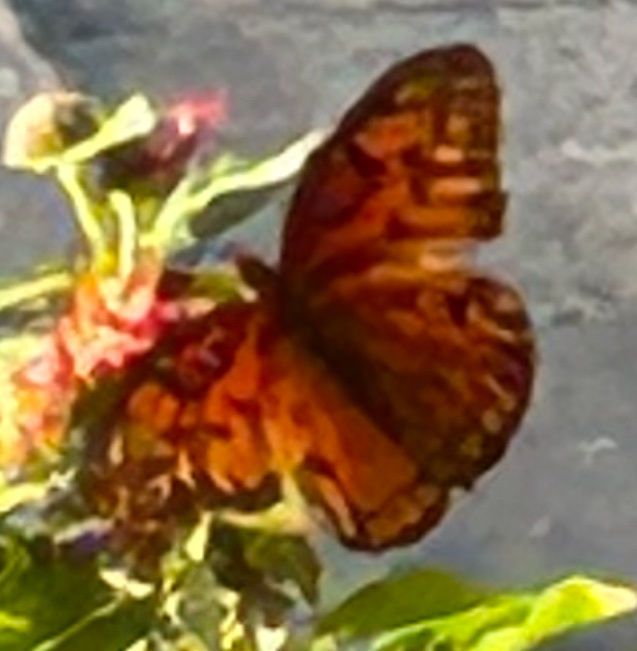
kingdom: Animalia
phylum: Arthropoda
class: Insecta
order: Lepidoptera
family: Nymphalidae
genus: Dione
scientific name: Dione vanillae
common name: Gulf fritillary
